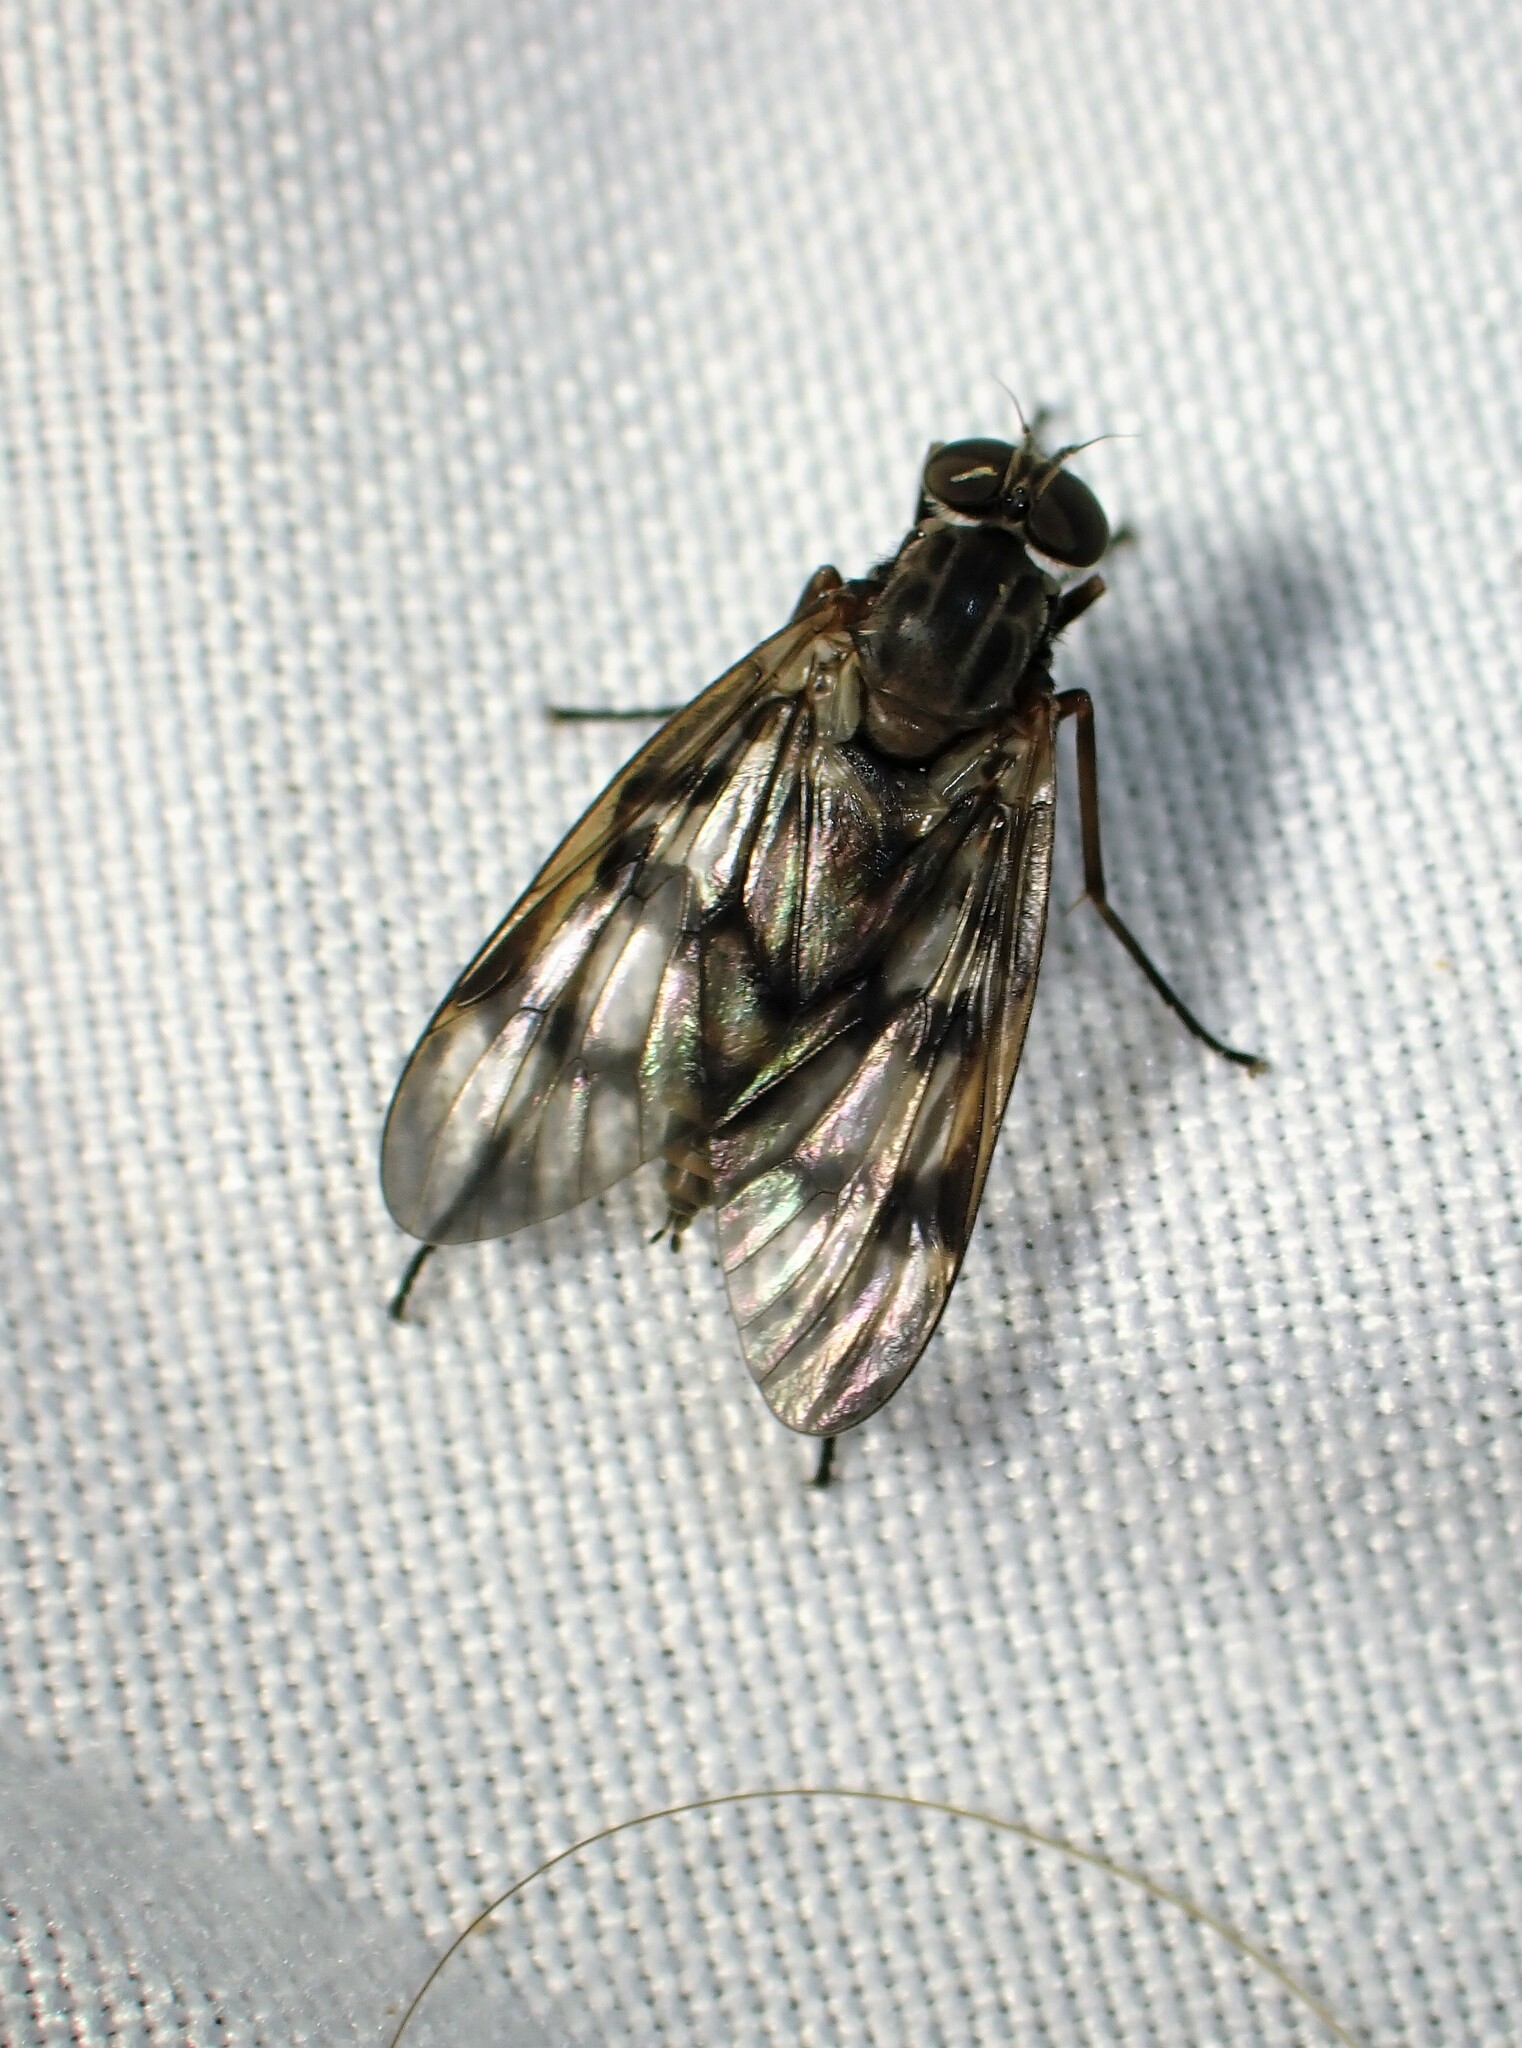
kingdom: Animalia
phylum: Arthropoda
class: Insecta
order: Diptera
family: Rhagionidae
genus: Rhagio
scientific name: Rhagio mystaceus
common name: Common snipe fly
